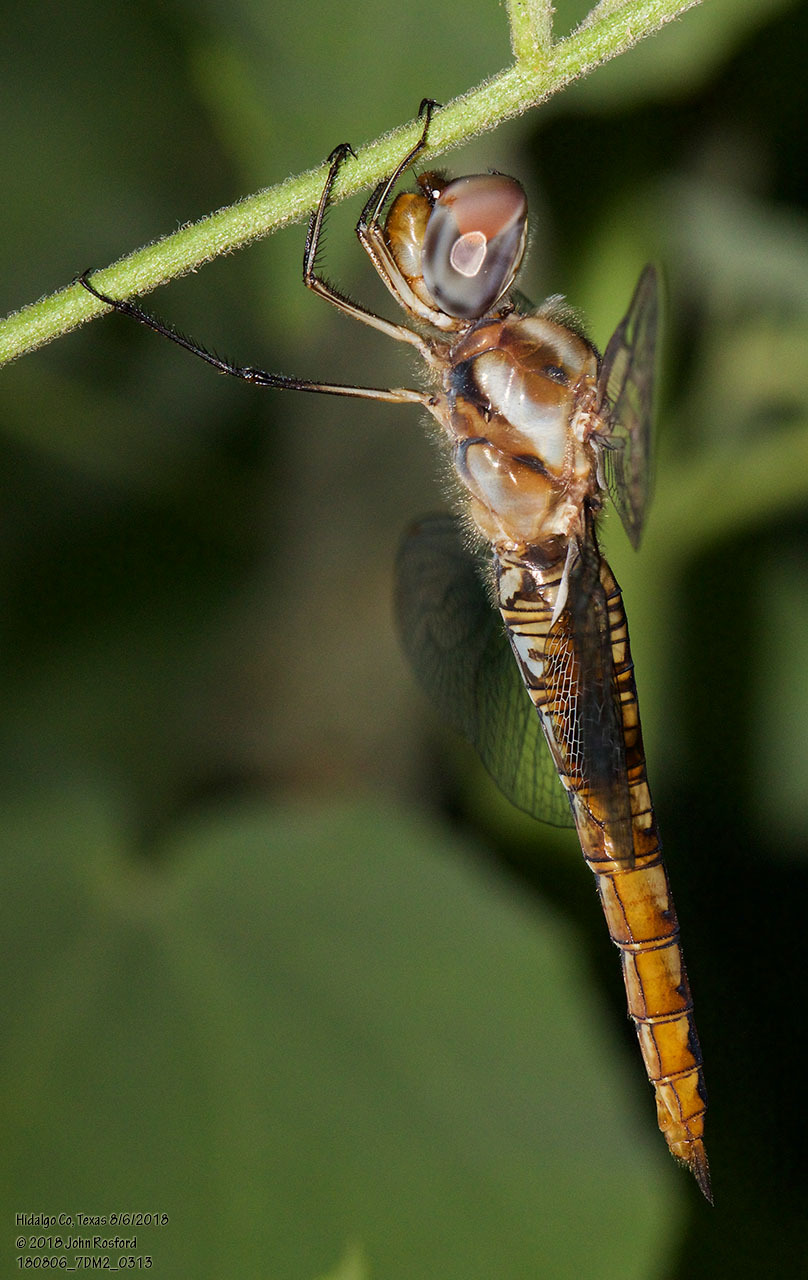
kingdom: Animalia
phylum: Arthropoda
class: Insecta
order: Odonata
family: Libellulidae
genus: Pantala
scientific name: Pantala hymenaea
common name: Spot-winged glider
